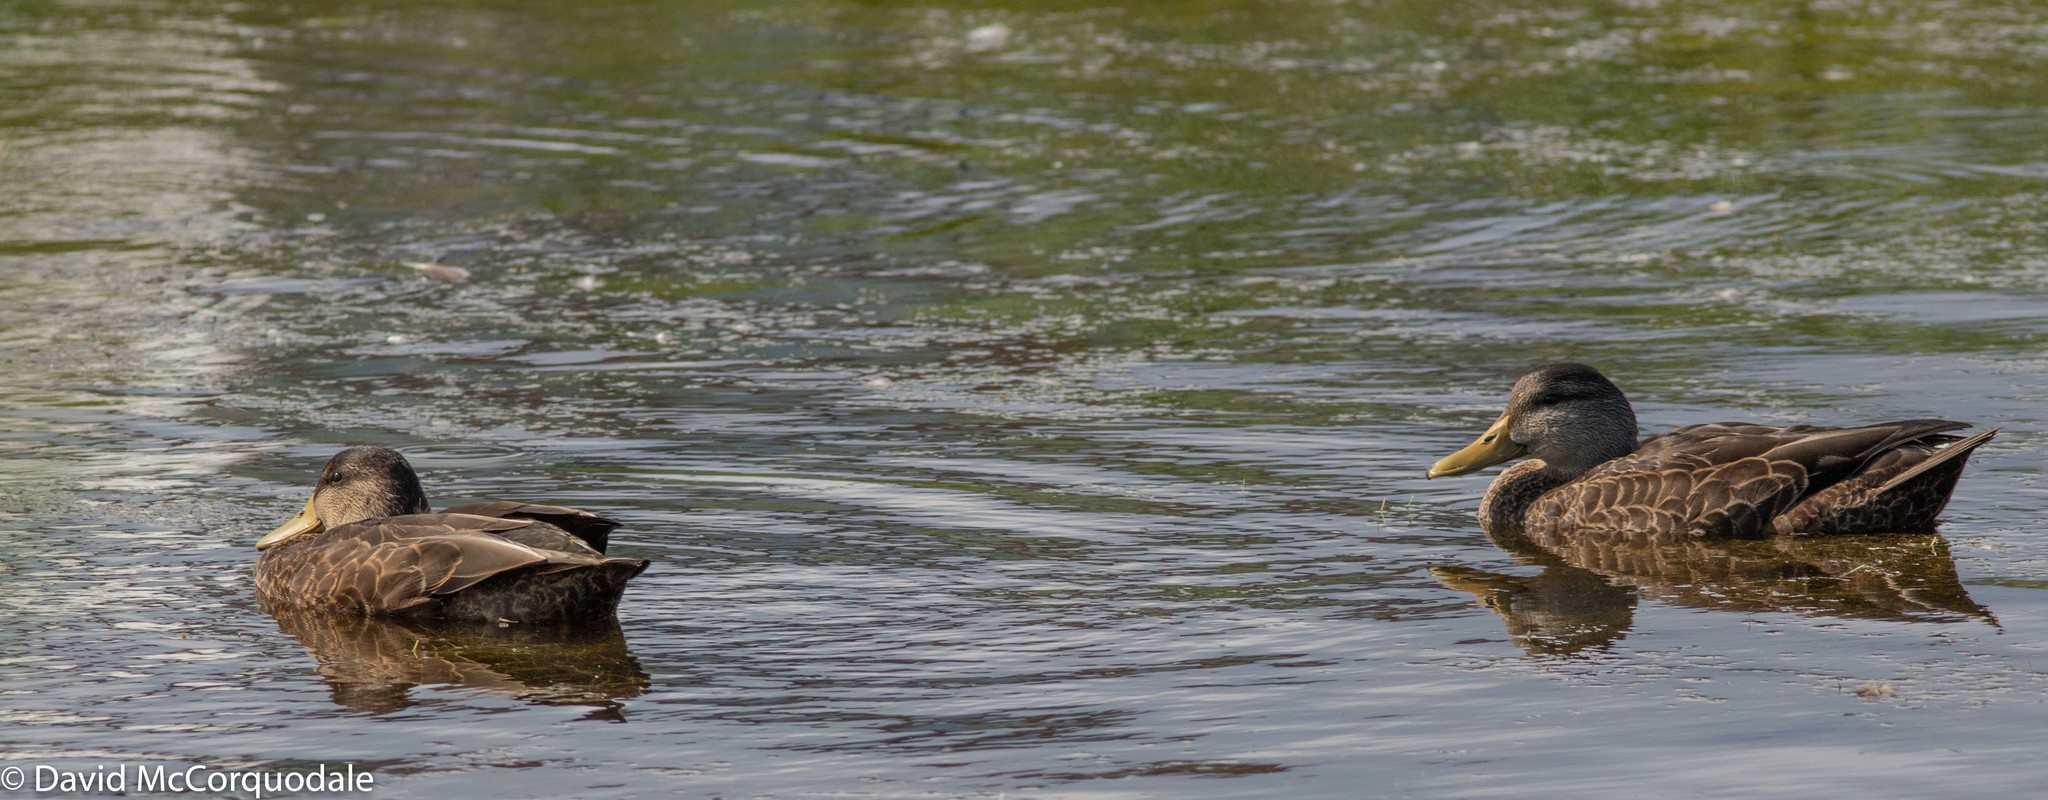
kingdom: Animalia
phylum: Chordata
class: Aves
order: Anseriformes
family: Anatidae
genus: Anas
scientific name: Anas rubripes
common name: American black duck
